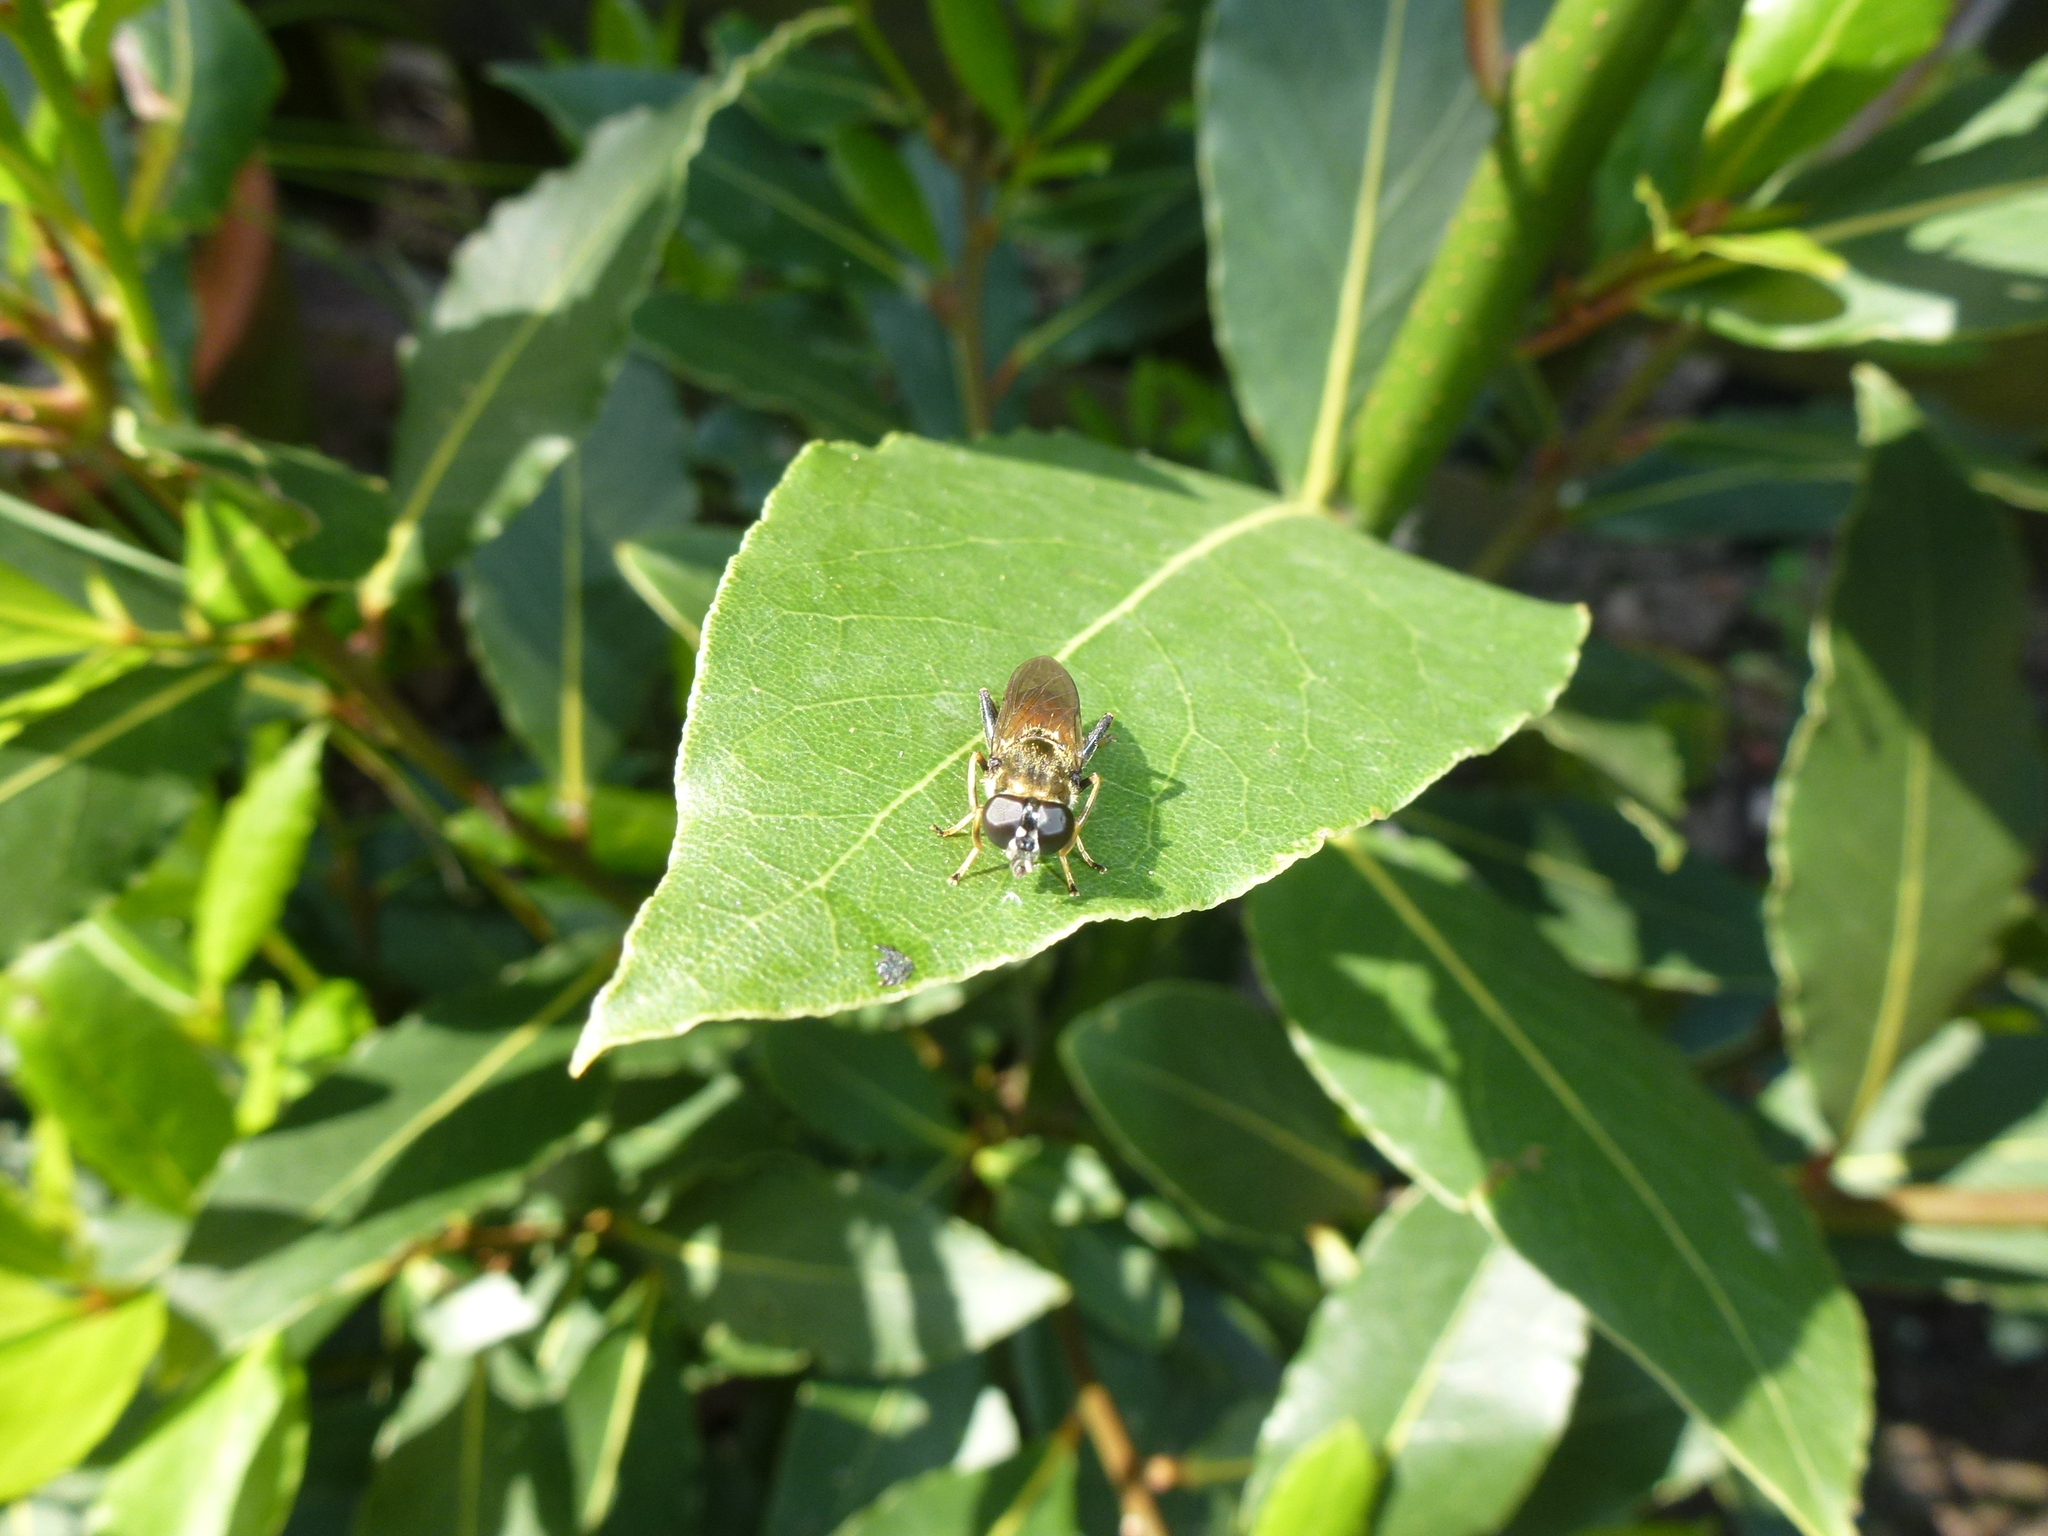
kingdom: Animalia
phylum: Arthropoda
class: Insecta
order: Diptera
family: Syrphidae
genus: Xylota
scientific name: Xylota segnis
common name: Brown-toed forest fly
